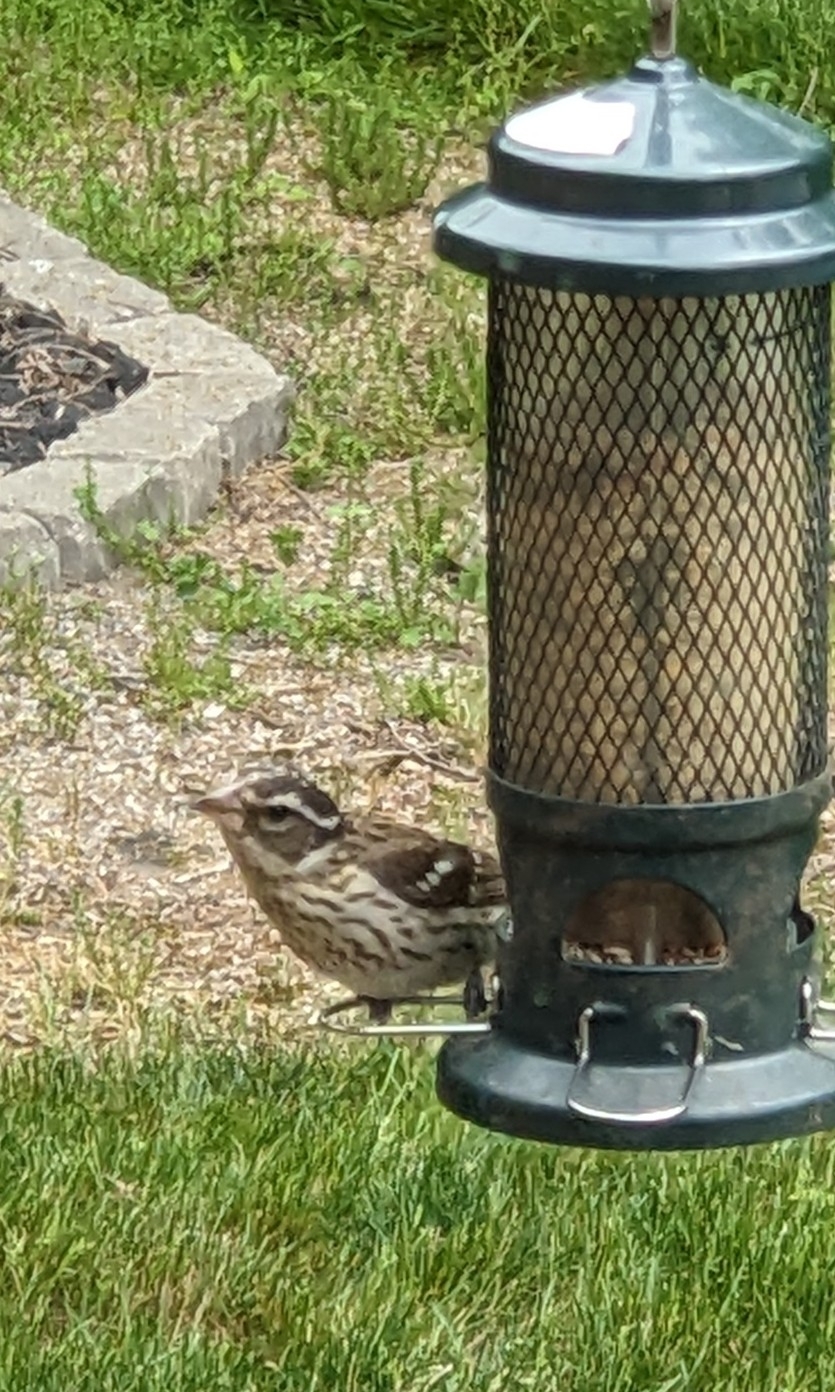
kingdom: Animalia
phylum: Chordata
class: Aves
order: Passeriformes
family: Cardinalidae
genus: Pheucticus
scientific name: Pheucticus ludovicianus
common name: Rose-breasted grosbeak
